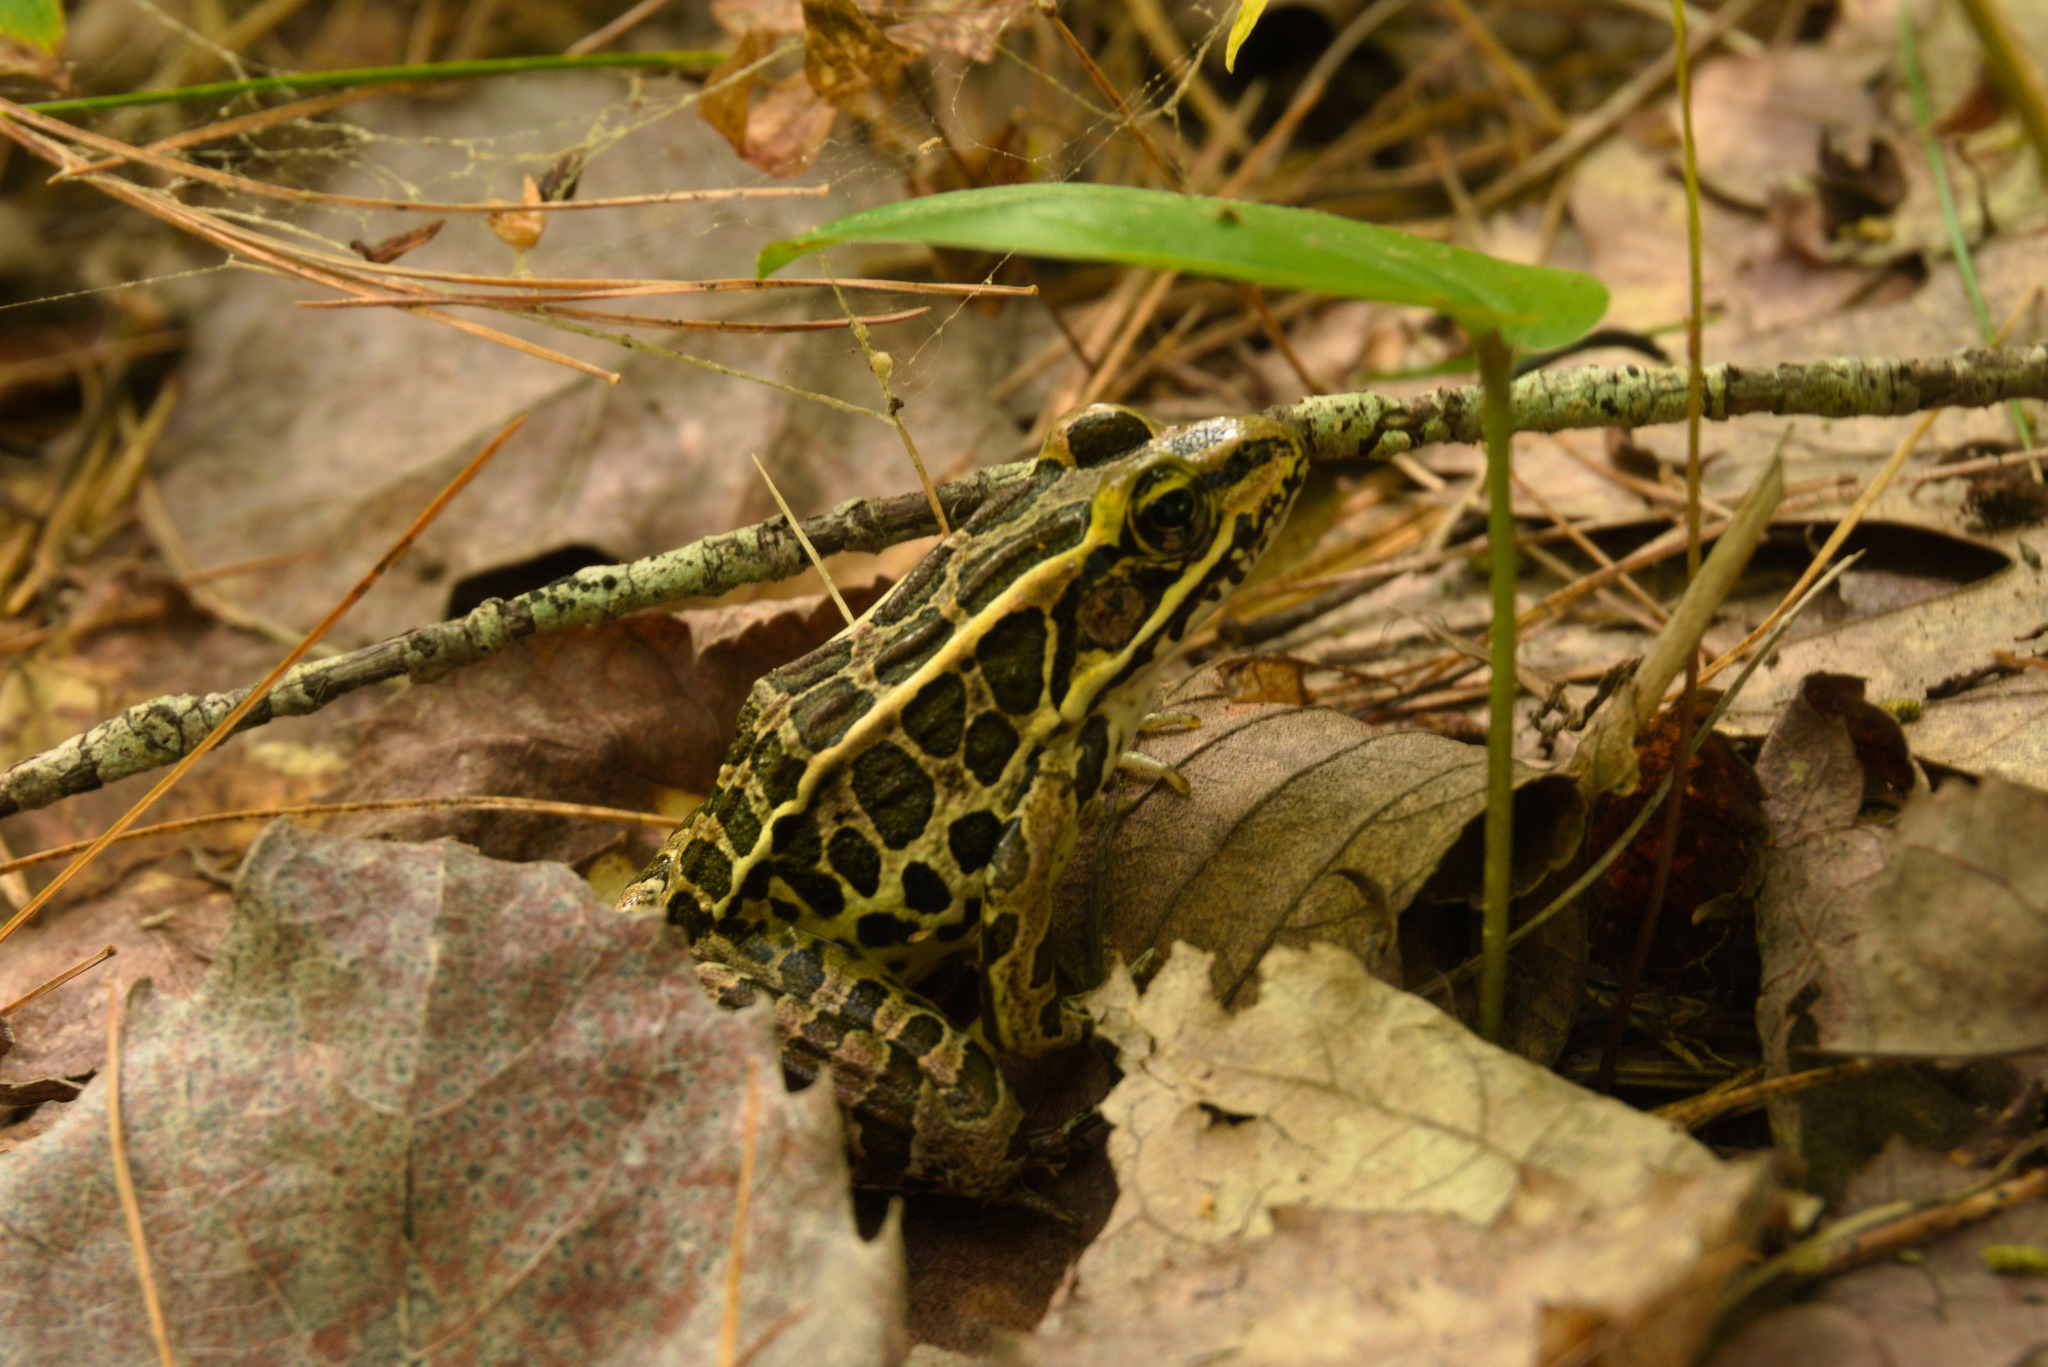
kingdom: Animalia
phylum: Chordata
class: Amphibia
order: Anura
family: Ranidae
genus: Lithobates
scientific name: Lithobates palustris
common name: Pickerel frog
